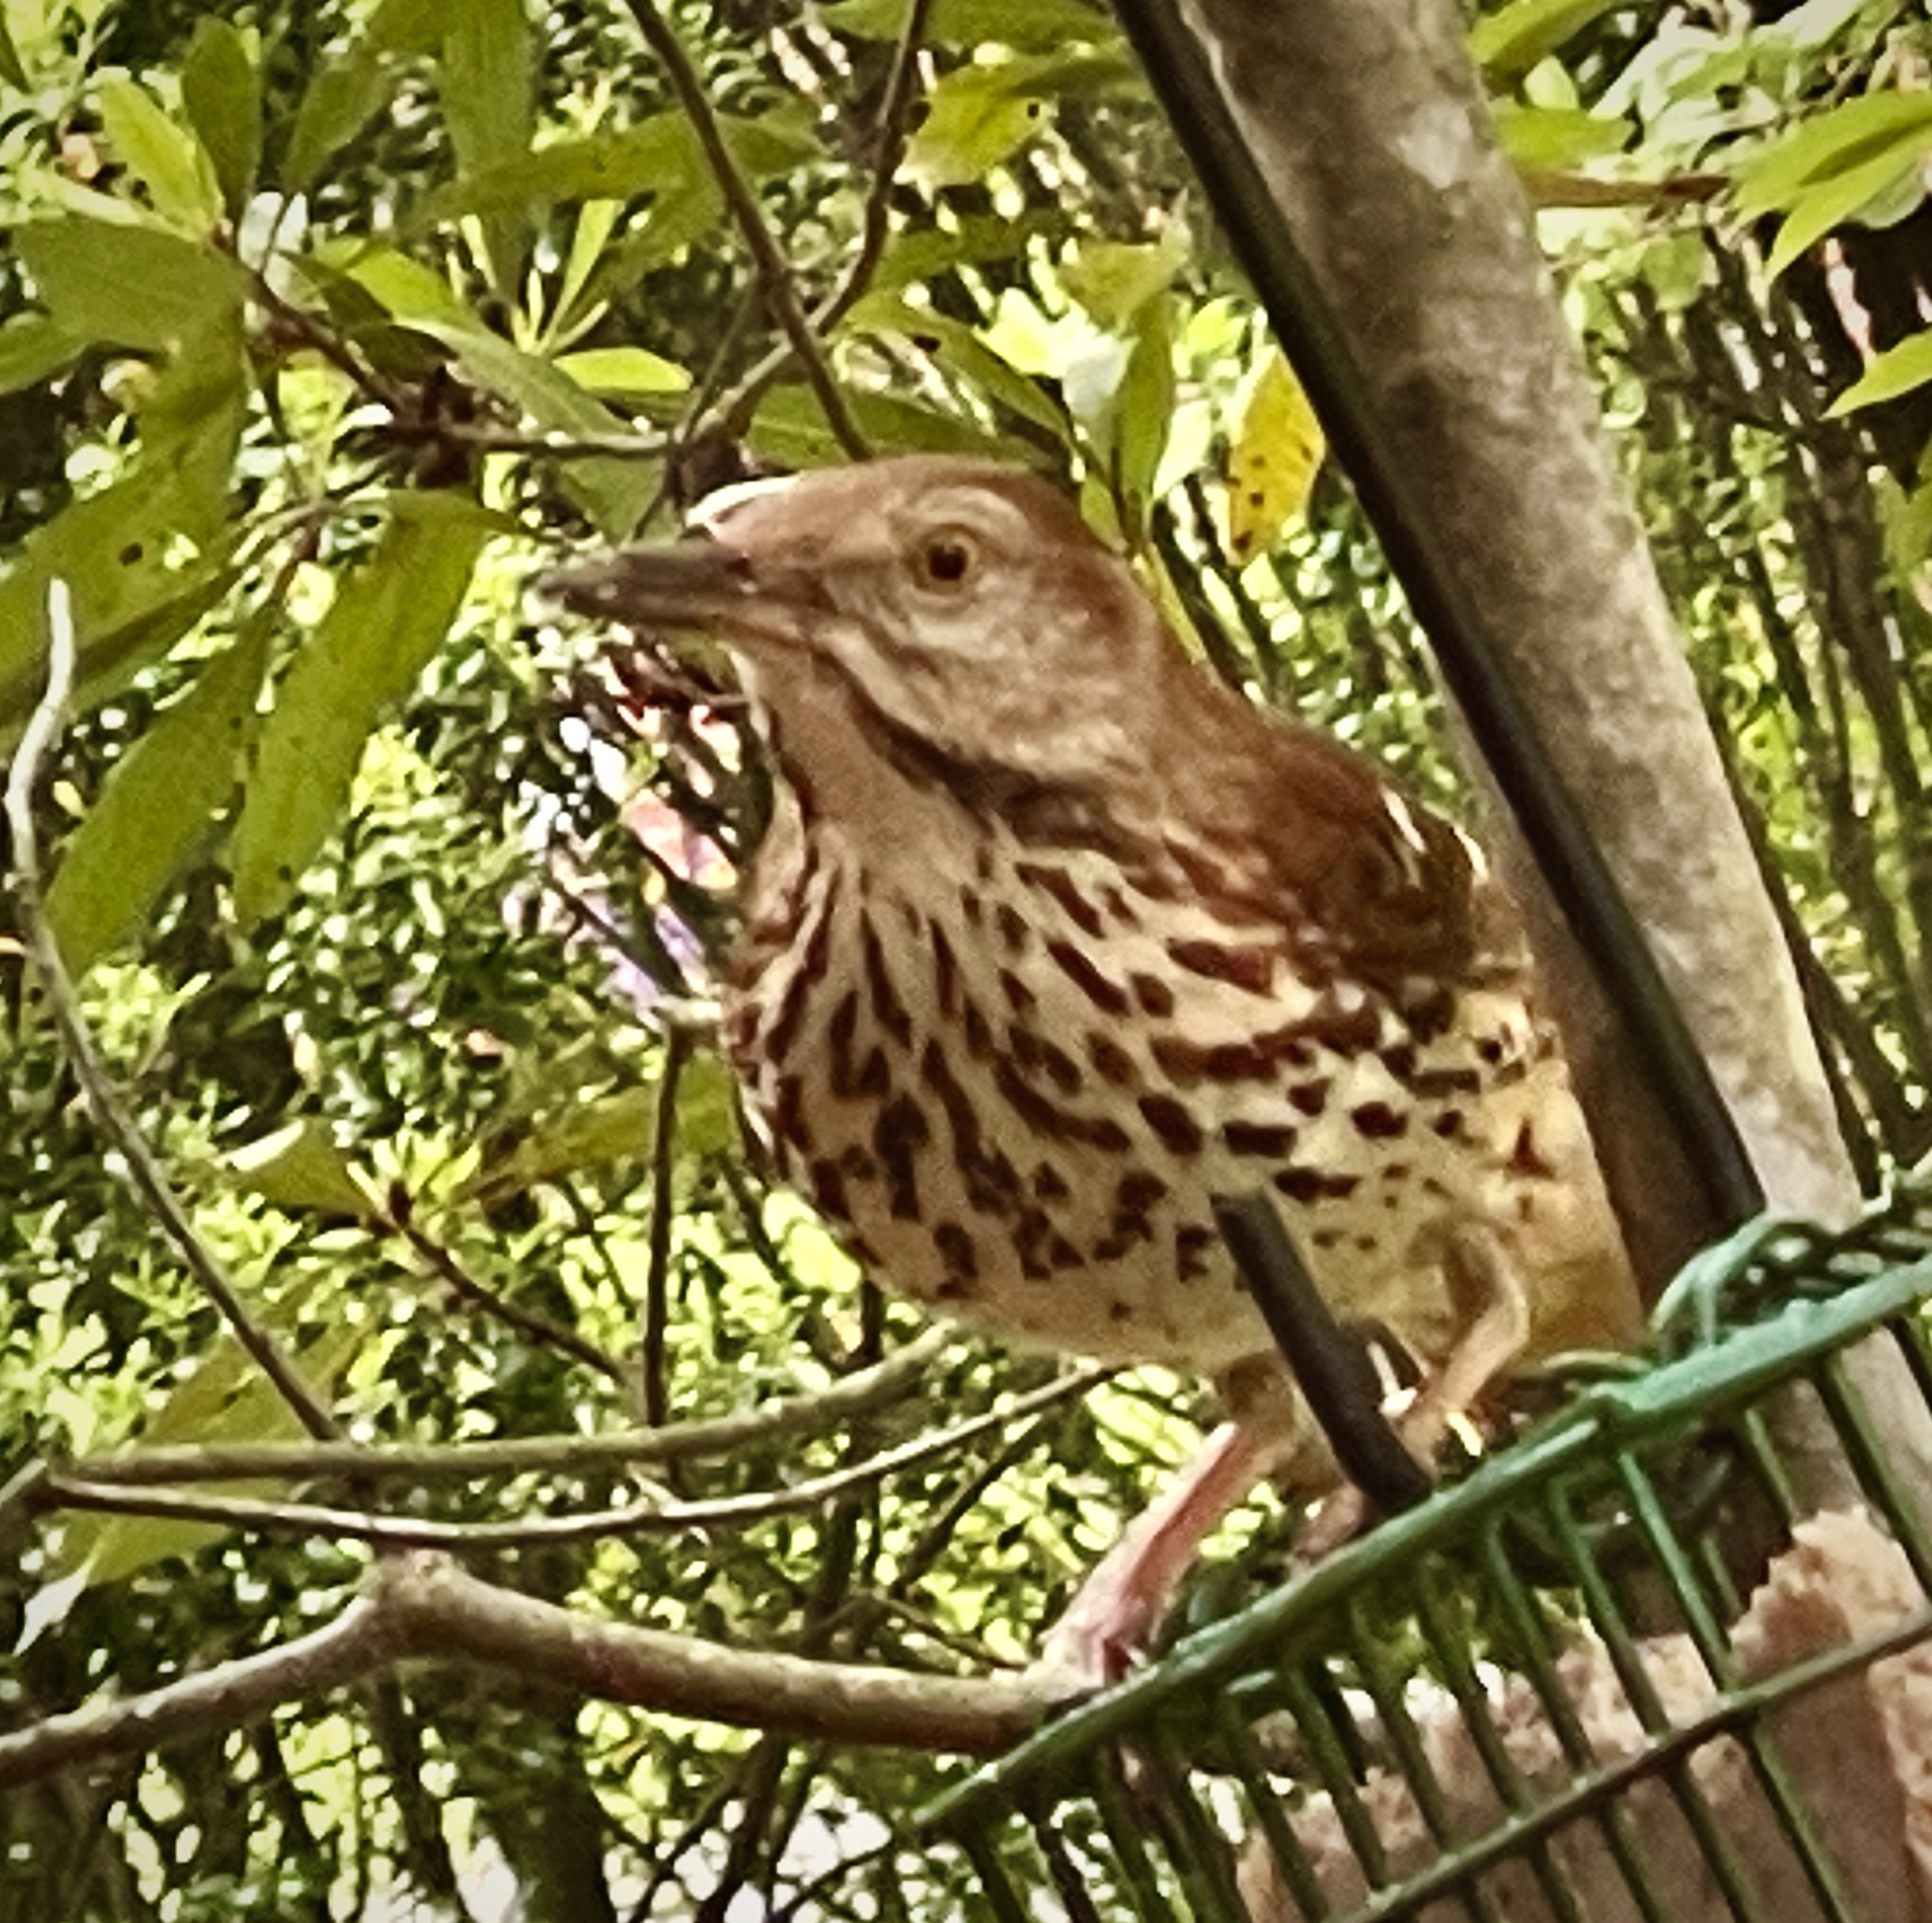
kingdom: Animalia
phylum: Chordata
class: Aves
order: Passeriformes
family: Mimidae
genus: Toxostoma
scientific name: Toxostoma rufum
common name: Brown thrasher
